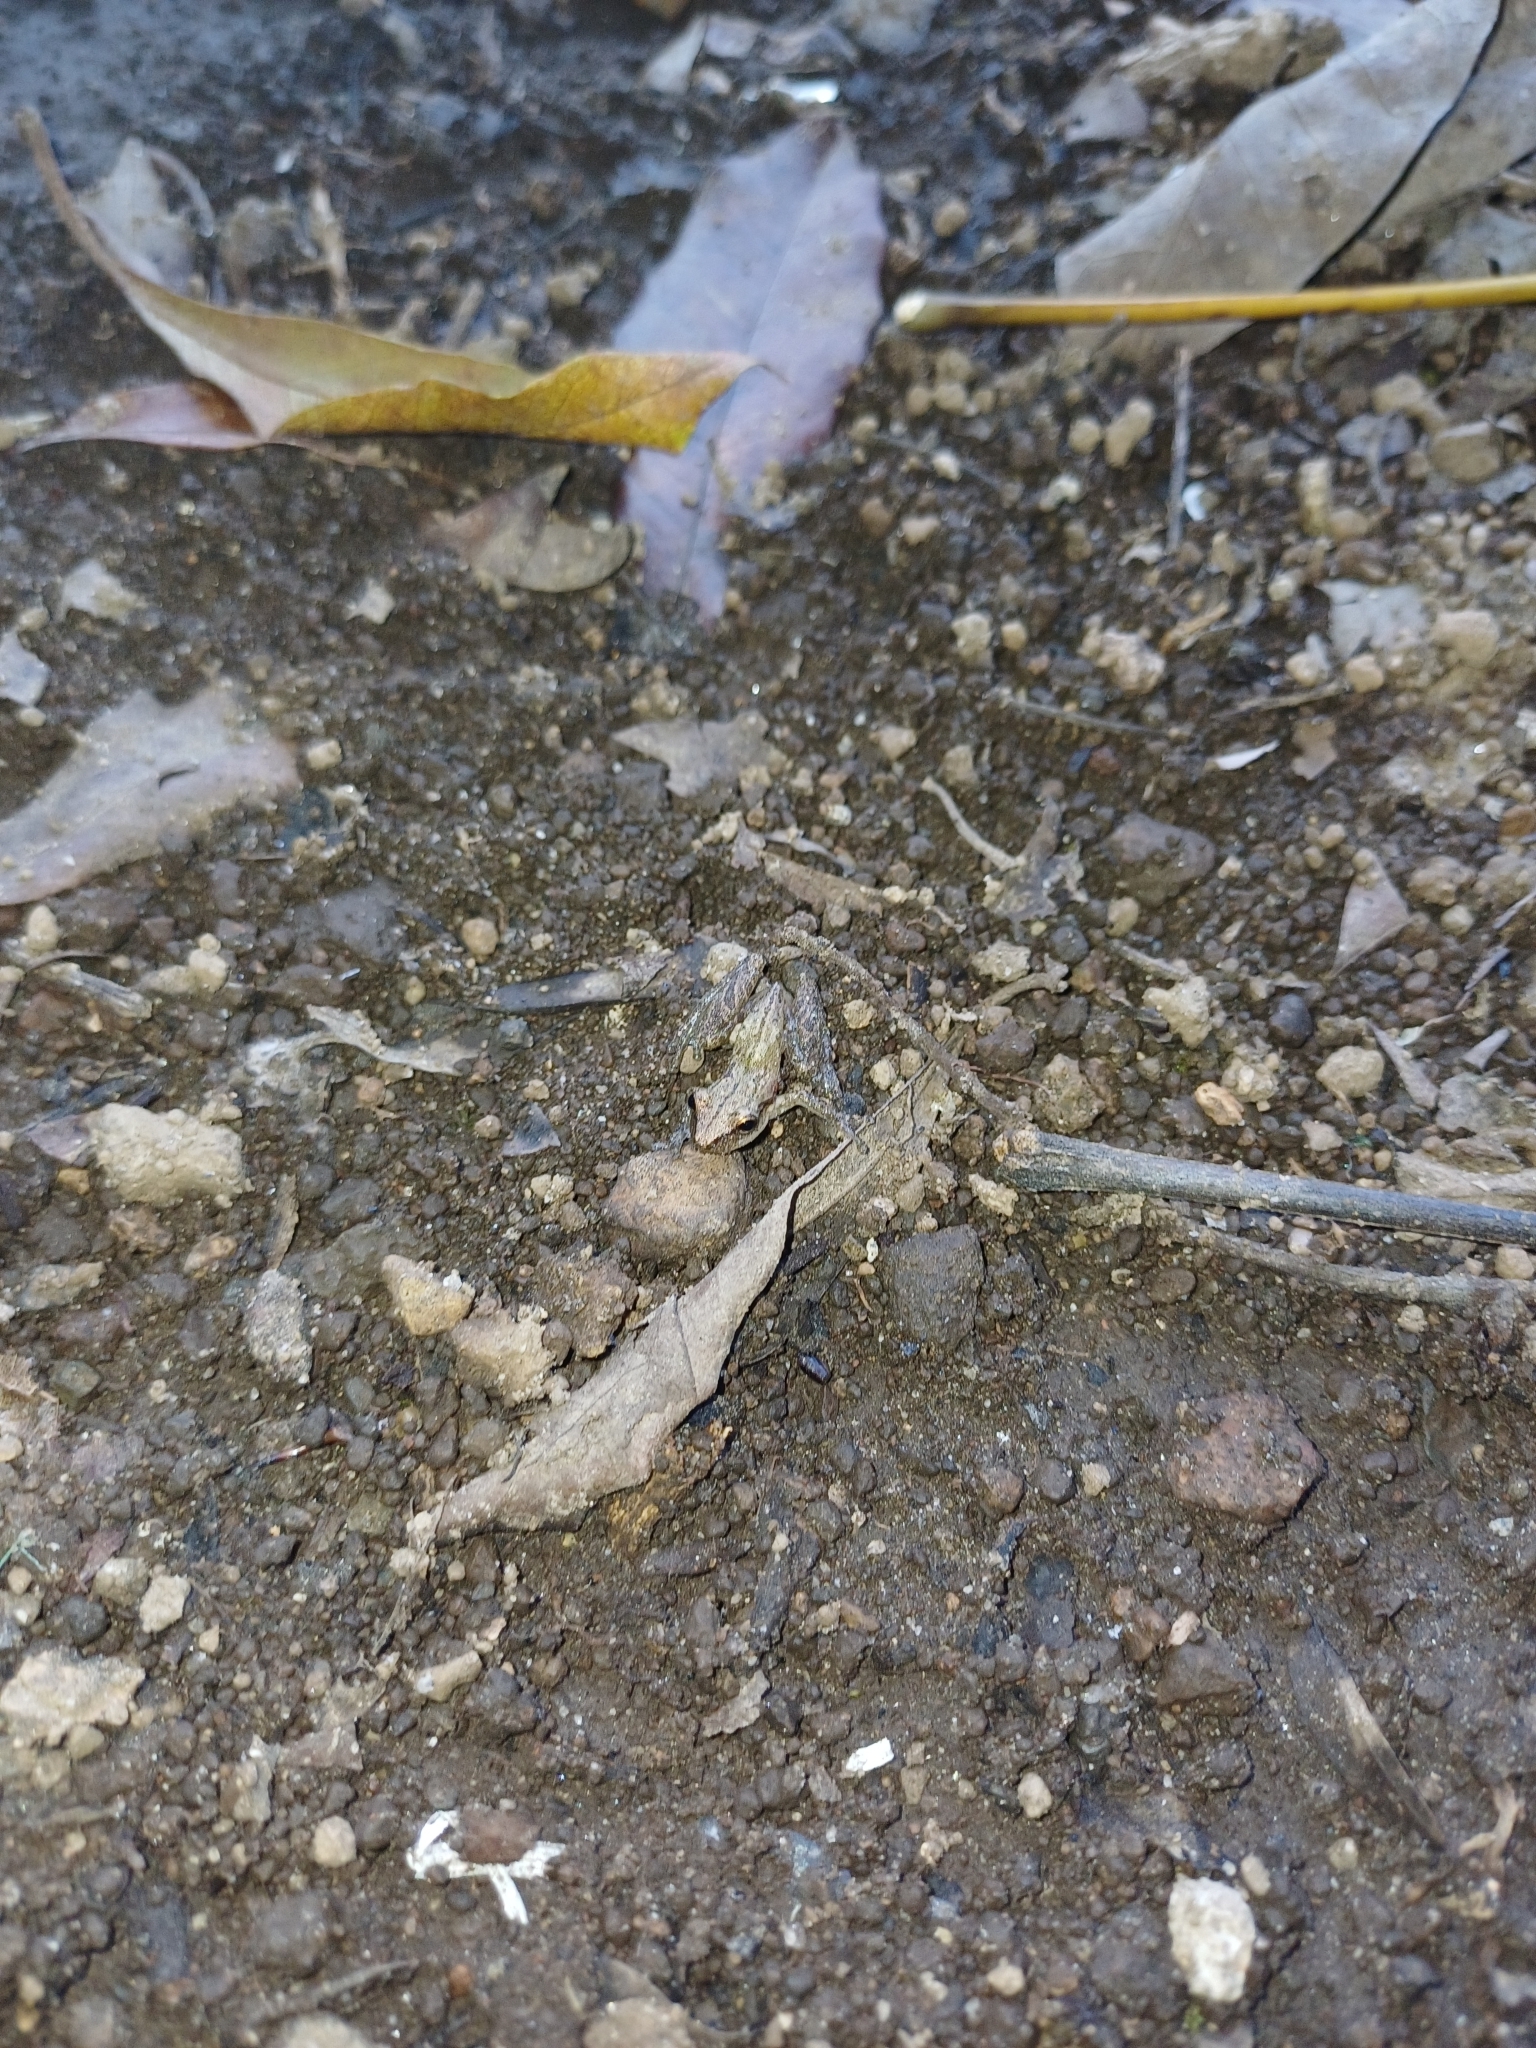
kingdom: Animalia
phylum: Chordata
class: Amphibia
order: Anura
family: Hylidae
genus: Scinax
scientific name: Scinax staufferi
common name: Stauffer's long-nosed treefrog
